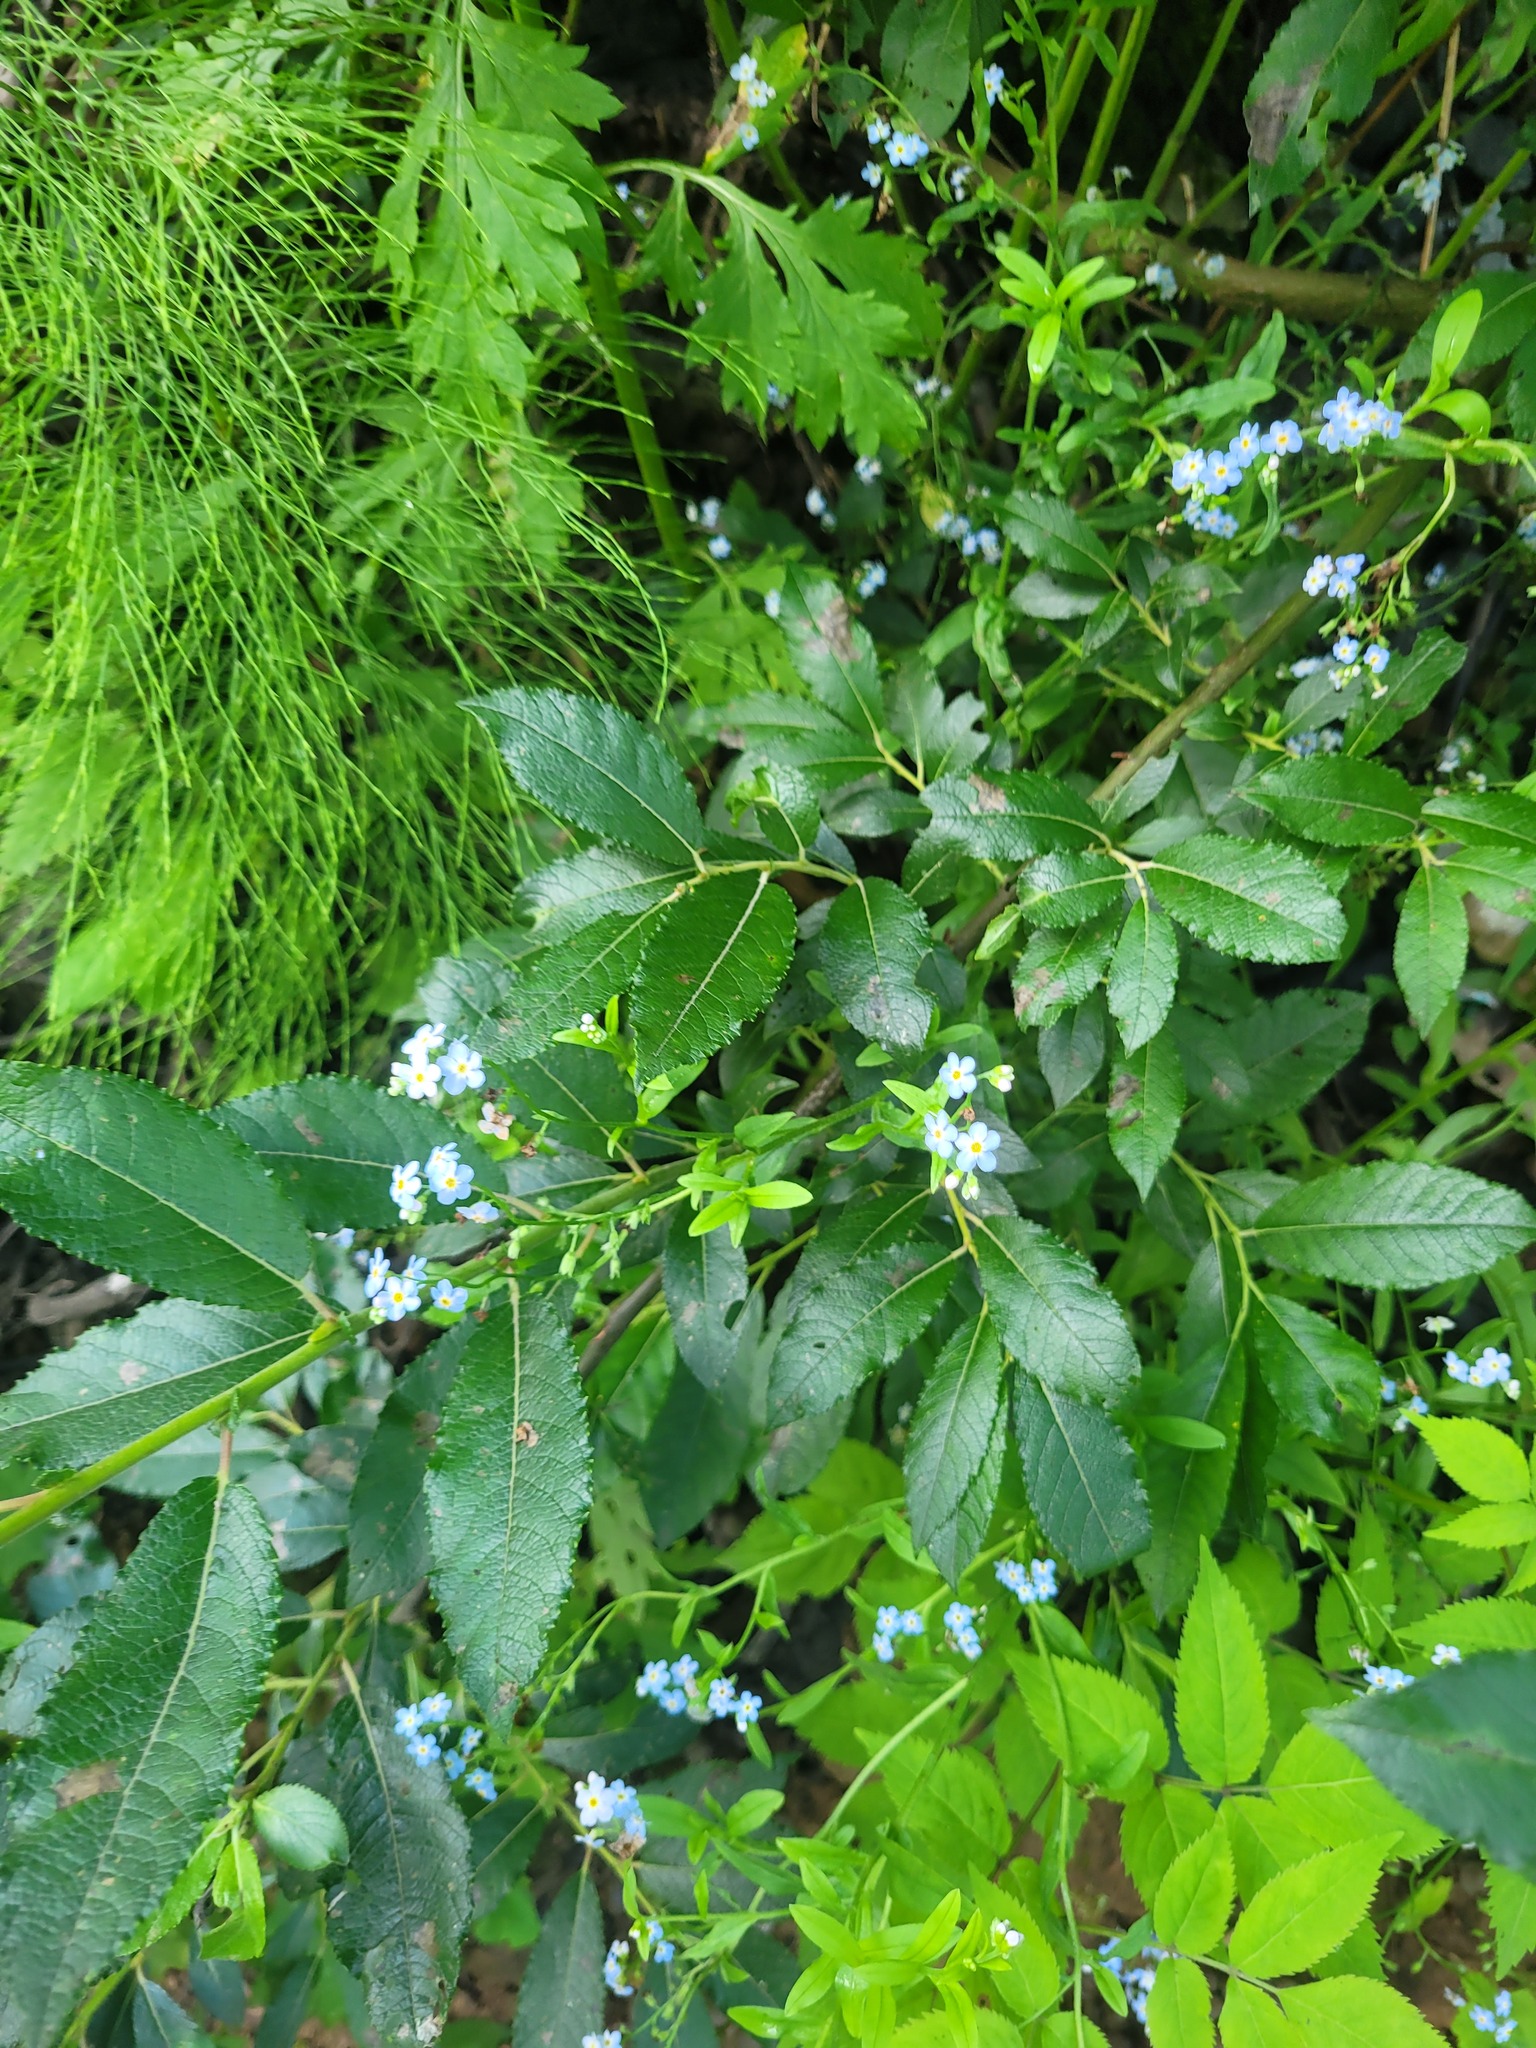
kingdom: Plantae
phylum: Tracheophyta
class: Magnoliopsida
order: Malpighiales
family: Salicaceae
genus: Salix
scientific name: Salix myrsinifolia
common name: Dark-leaved willow
